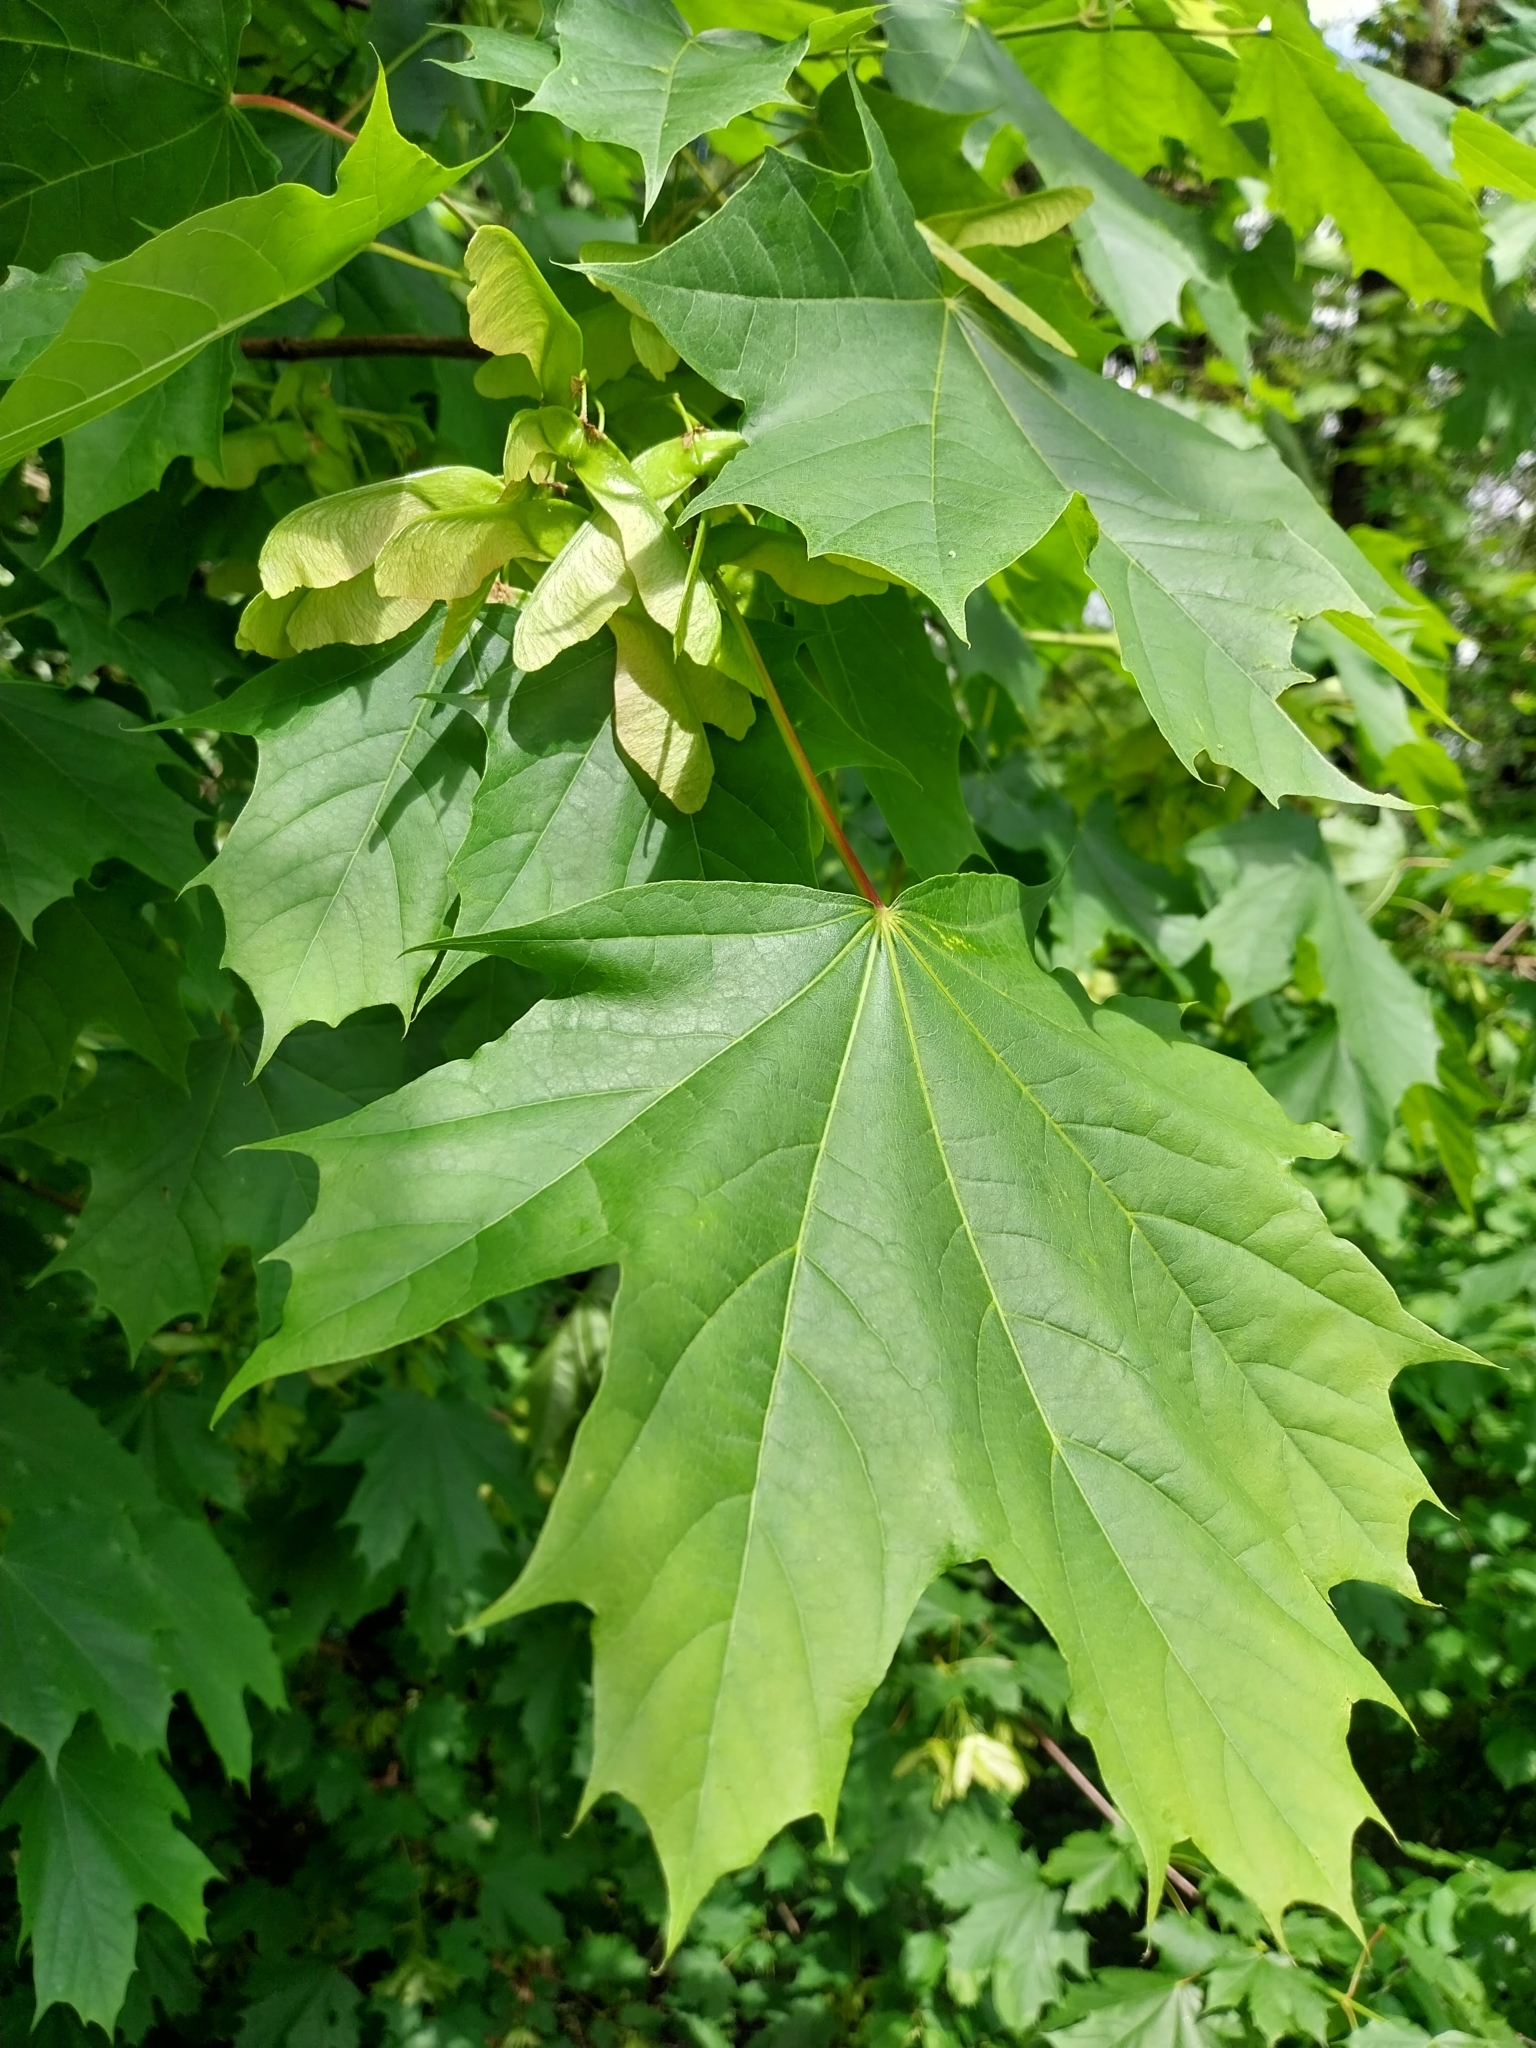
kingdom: Plantae
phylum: Tracheophyta
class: Magnoliopsida
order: Sapindales
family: Sapindaceae
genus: Acer
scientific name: Acer platanoides
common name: Norway maple
